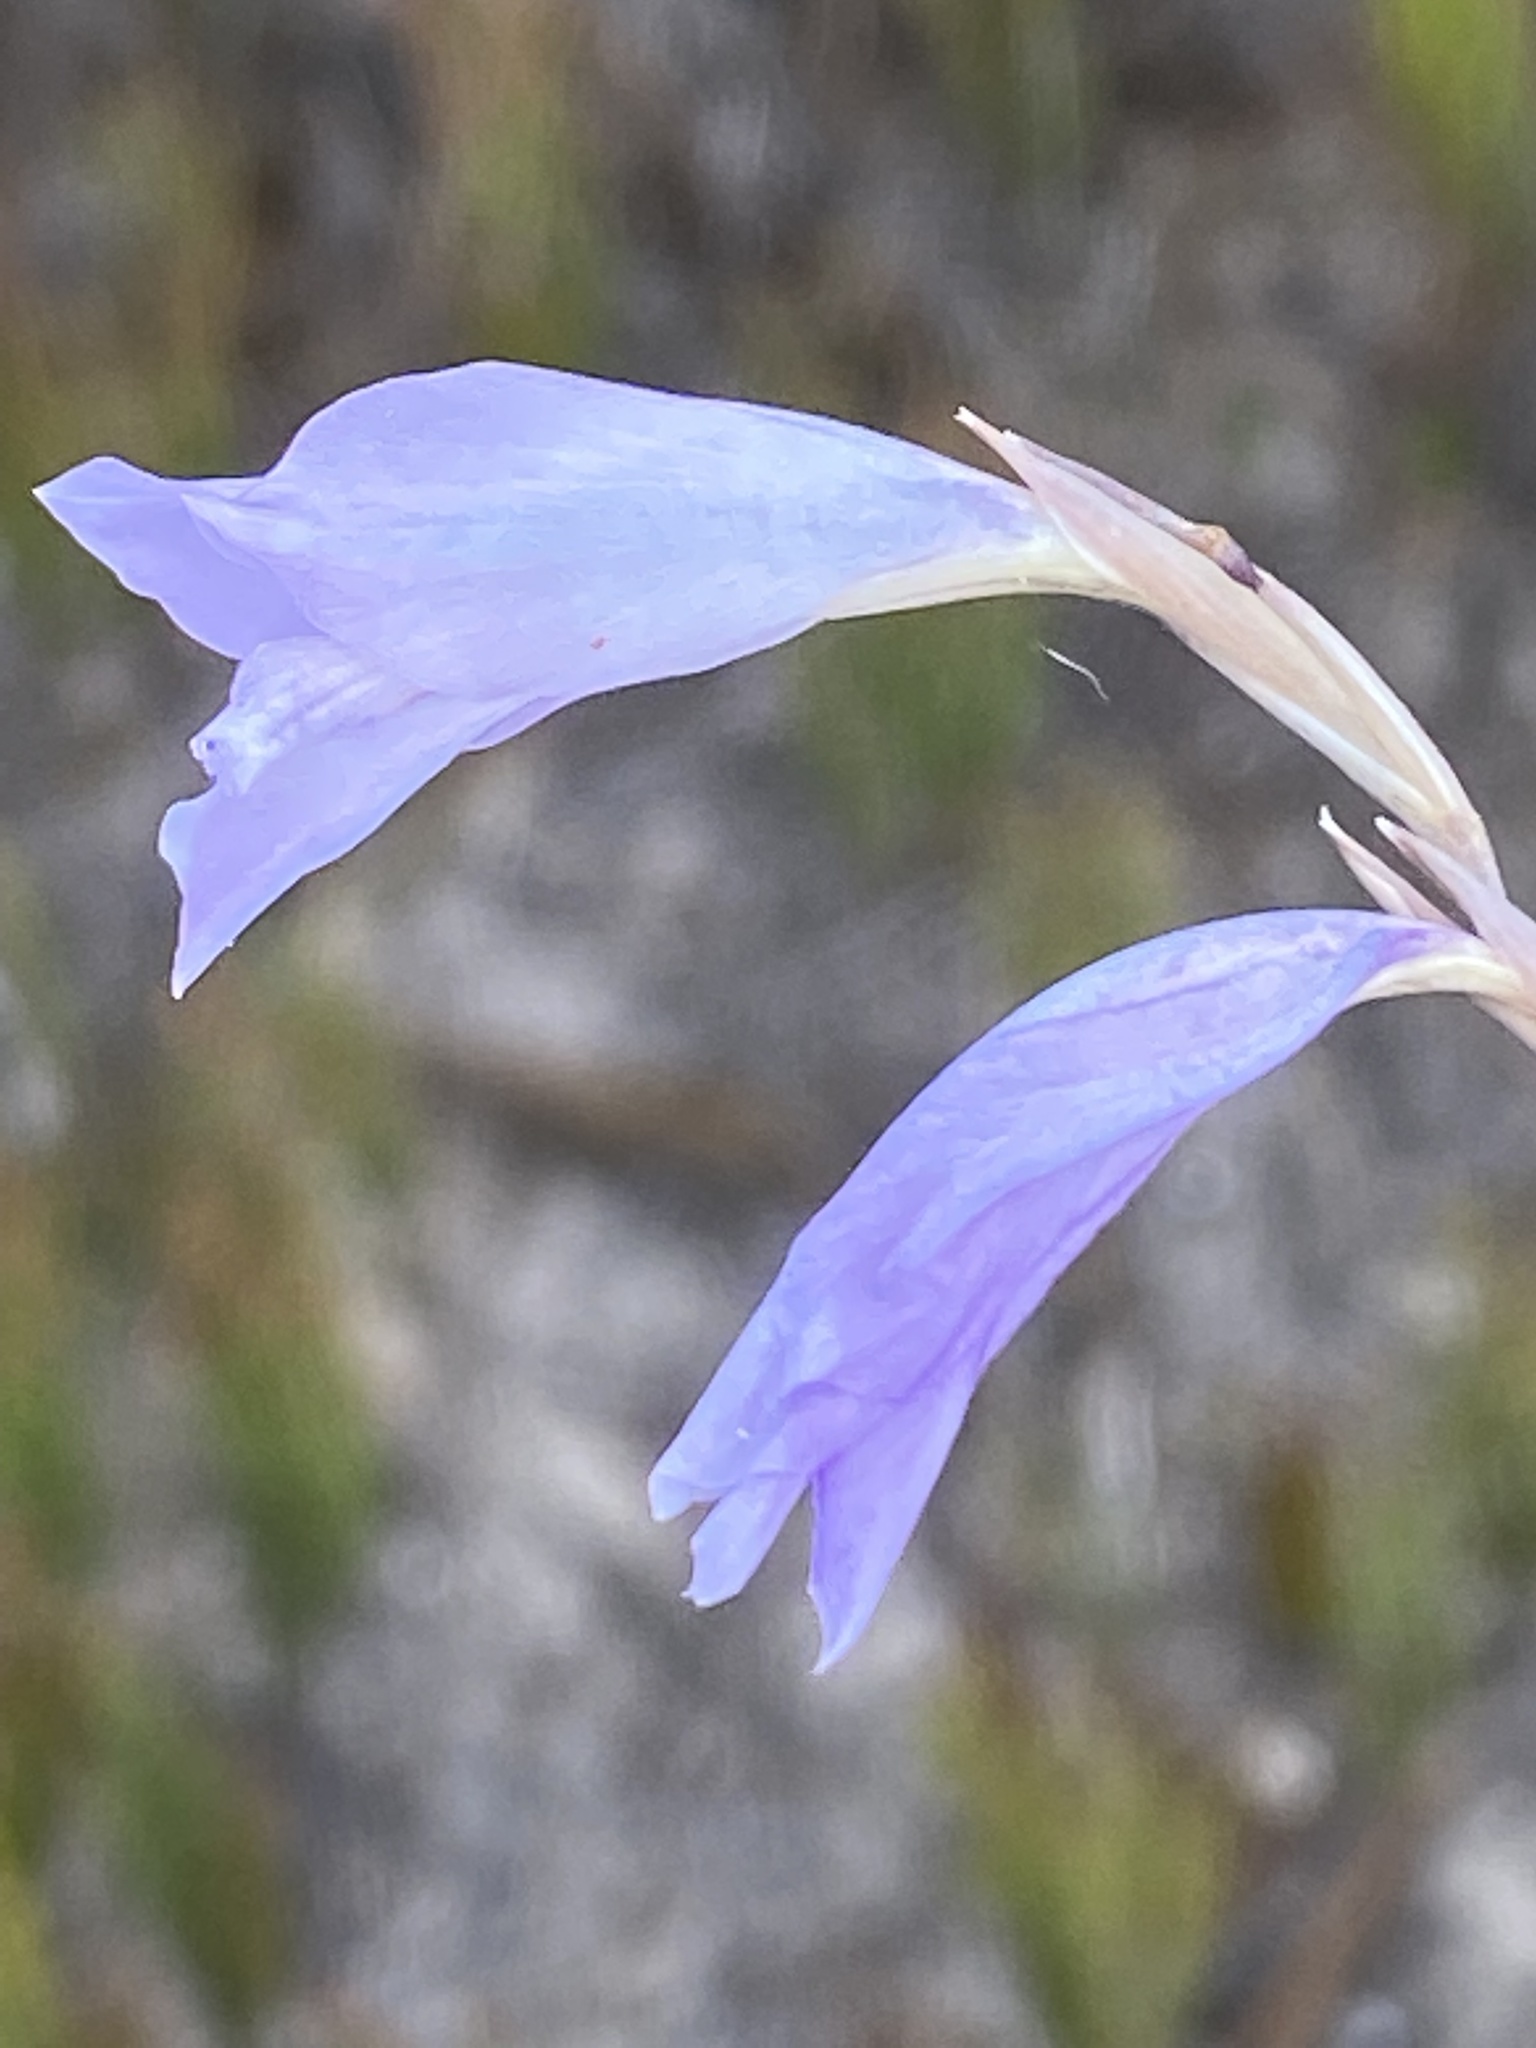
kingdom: Plantae
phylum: Tracheophyta
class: Liliopsida
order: Asparagales
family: Iridaceae
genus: Gladiolus
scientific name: Gladiolus vaginatus
